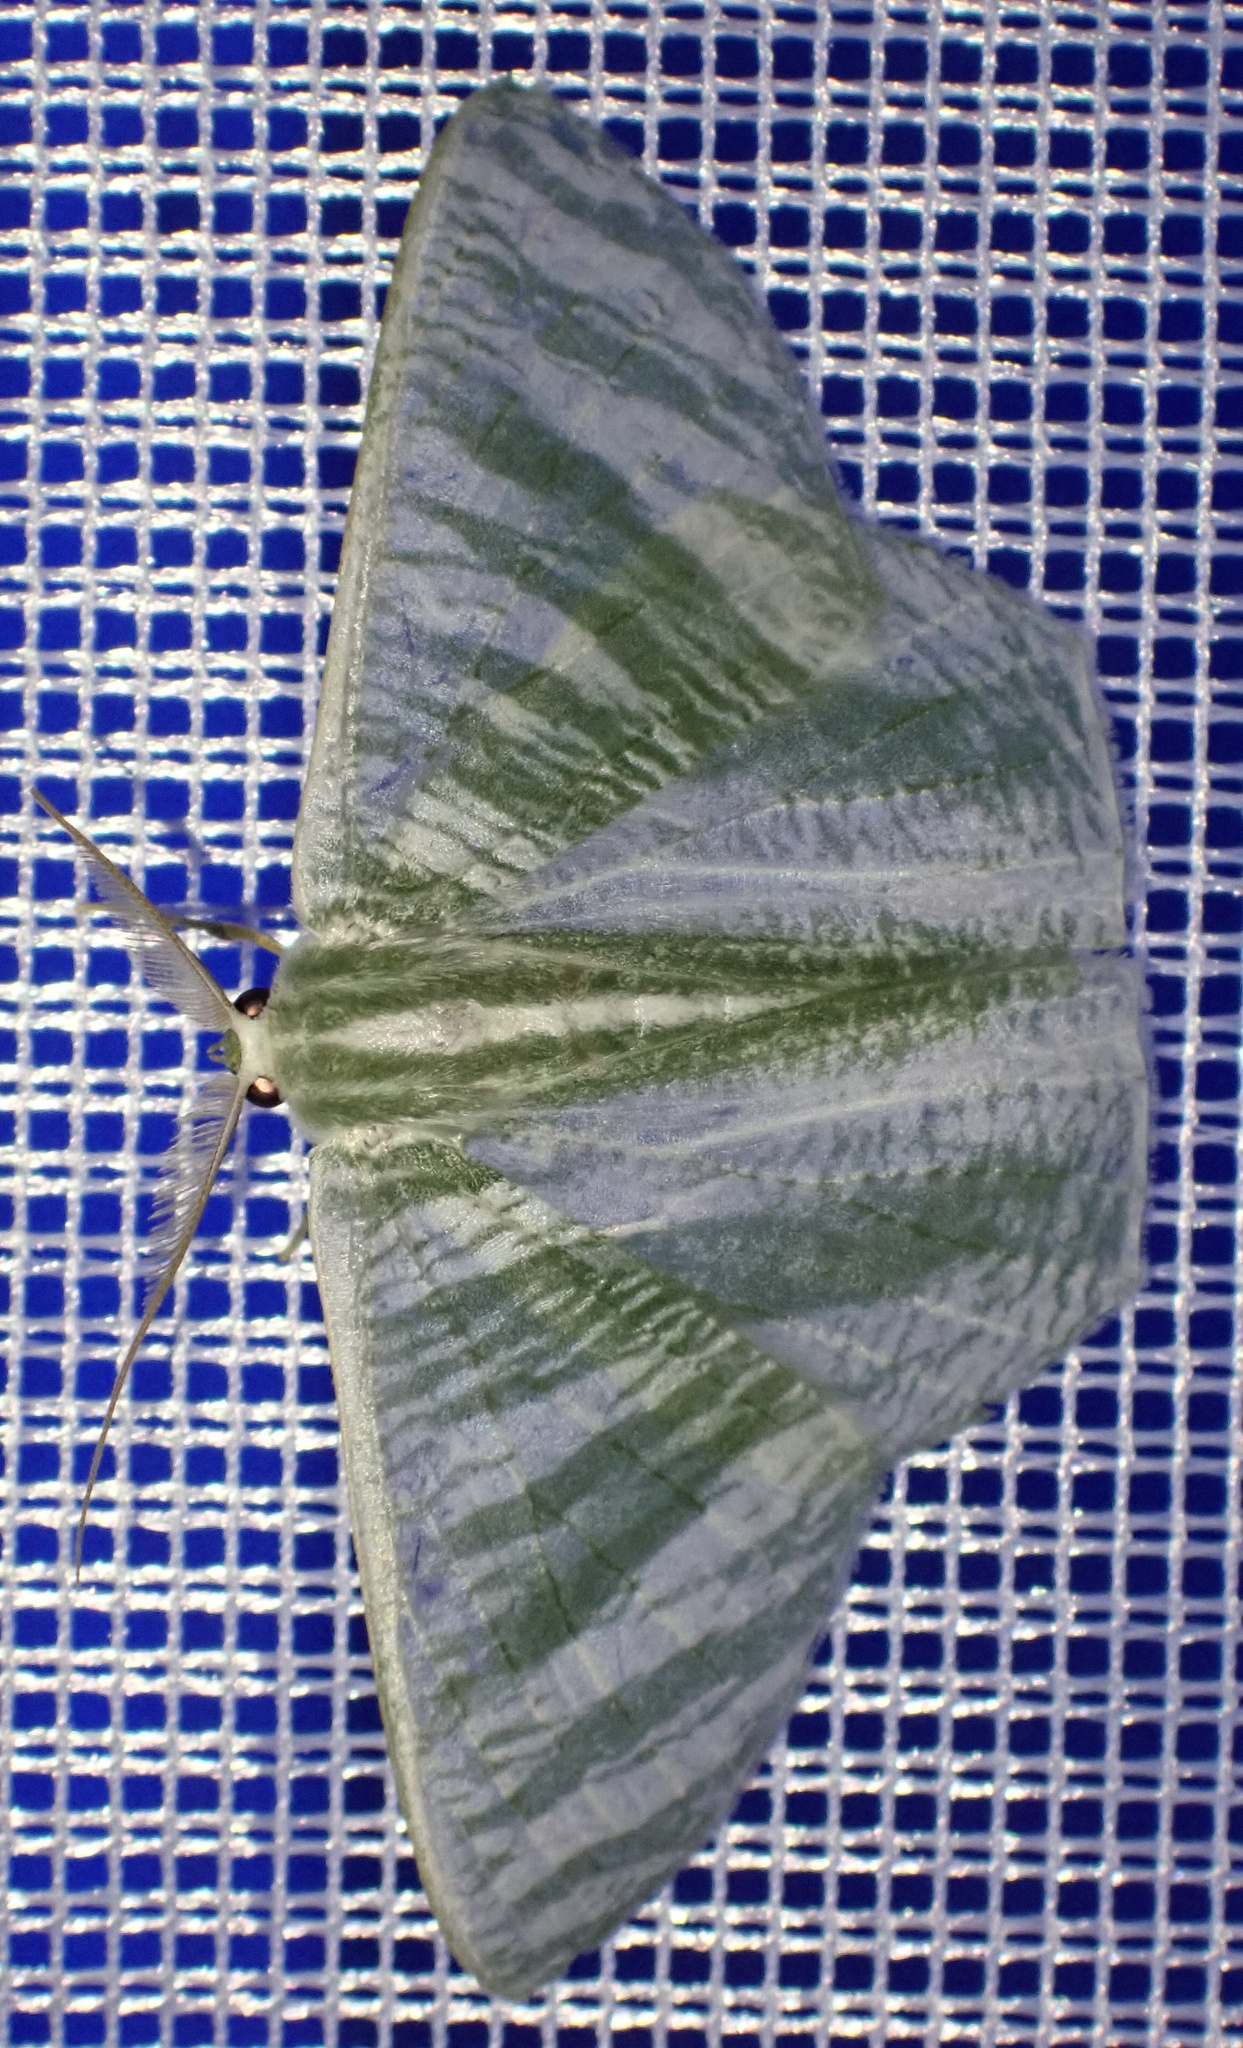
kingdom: Animalia
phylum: Arthropoda
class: Insecta
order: Lepidoptera
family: Geometridae
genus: Thalassodes
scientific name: Thalassodes nivestrota
